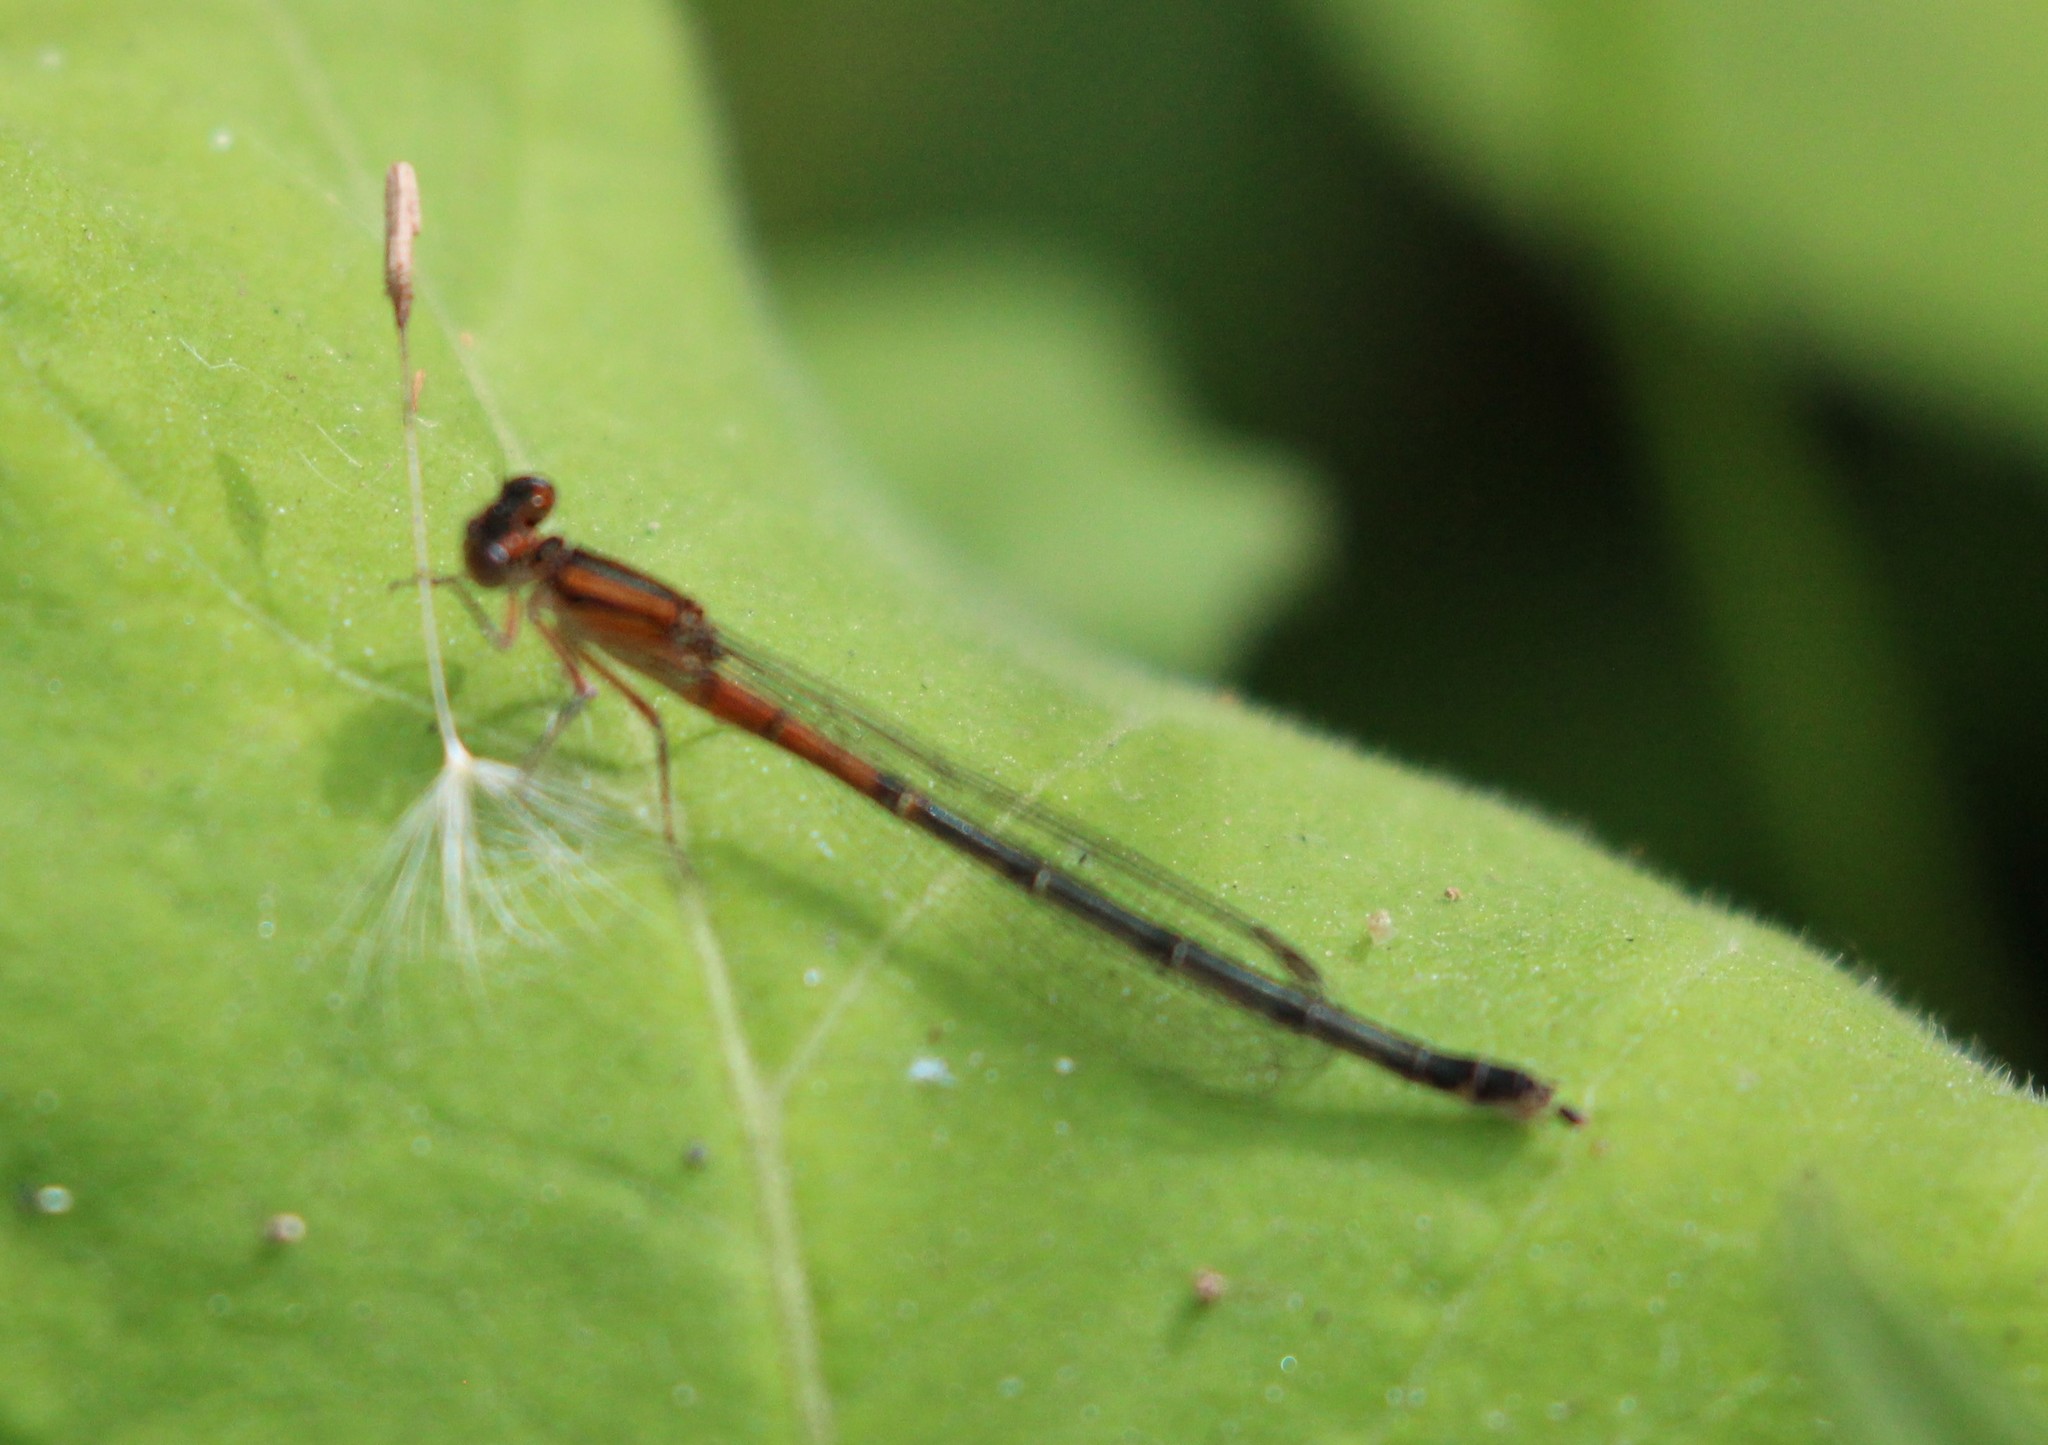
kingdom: Animalia
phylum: Arthropoda
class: Insecta
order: Odonata
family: Coenagrionidae
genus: Ischnura
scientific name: Ischnura verticalis
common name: Eastern forktail
